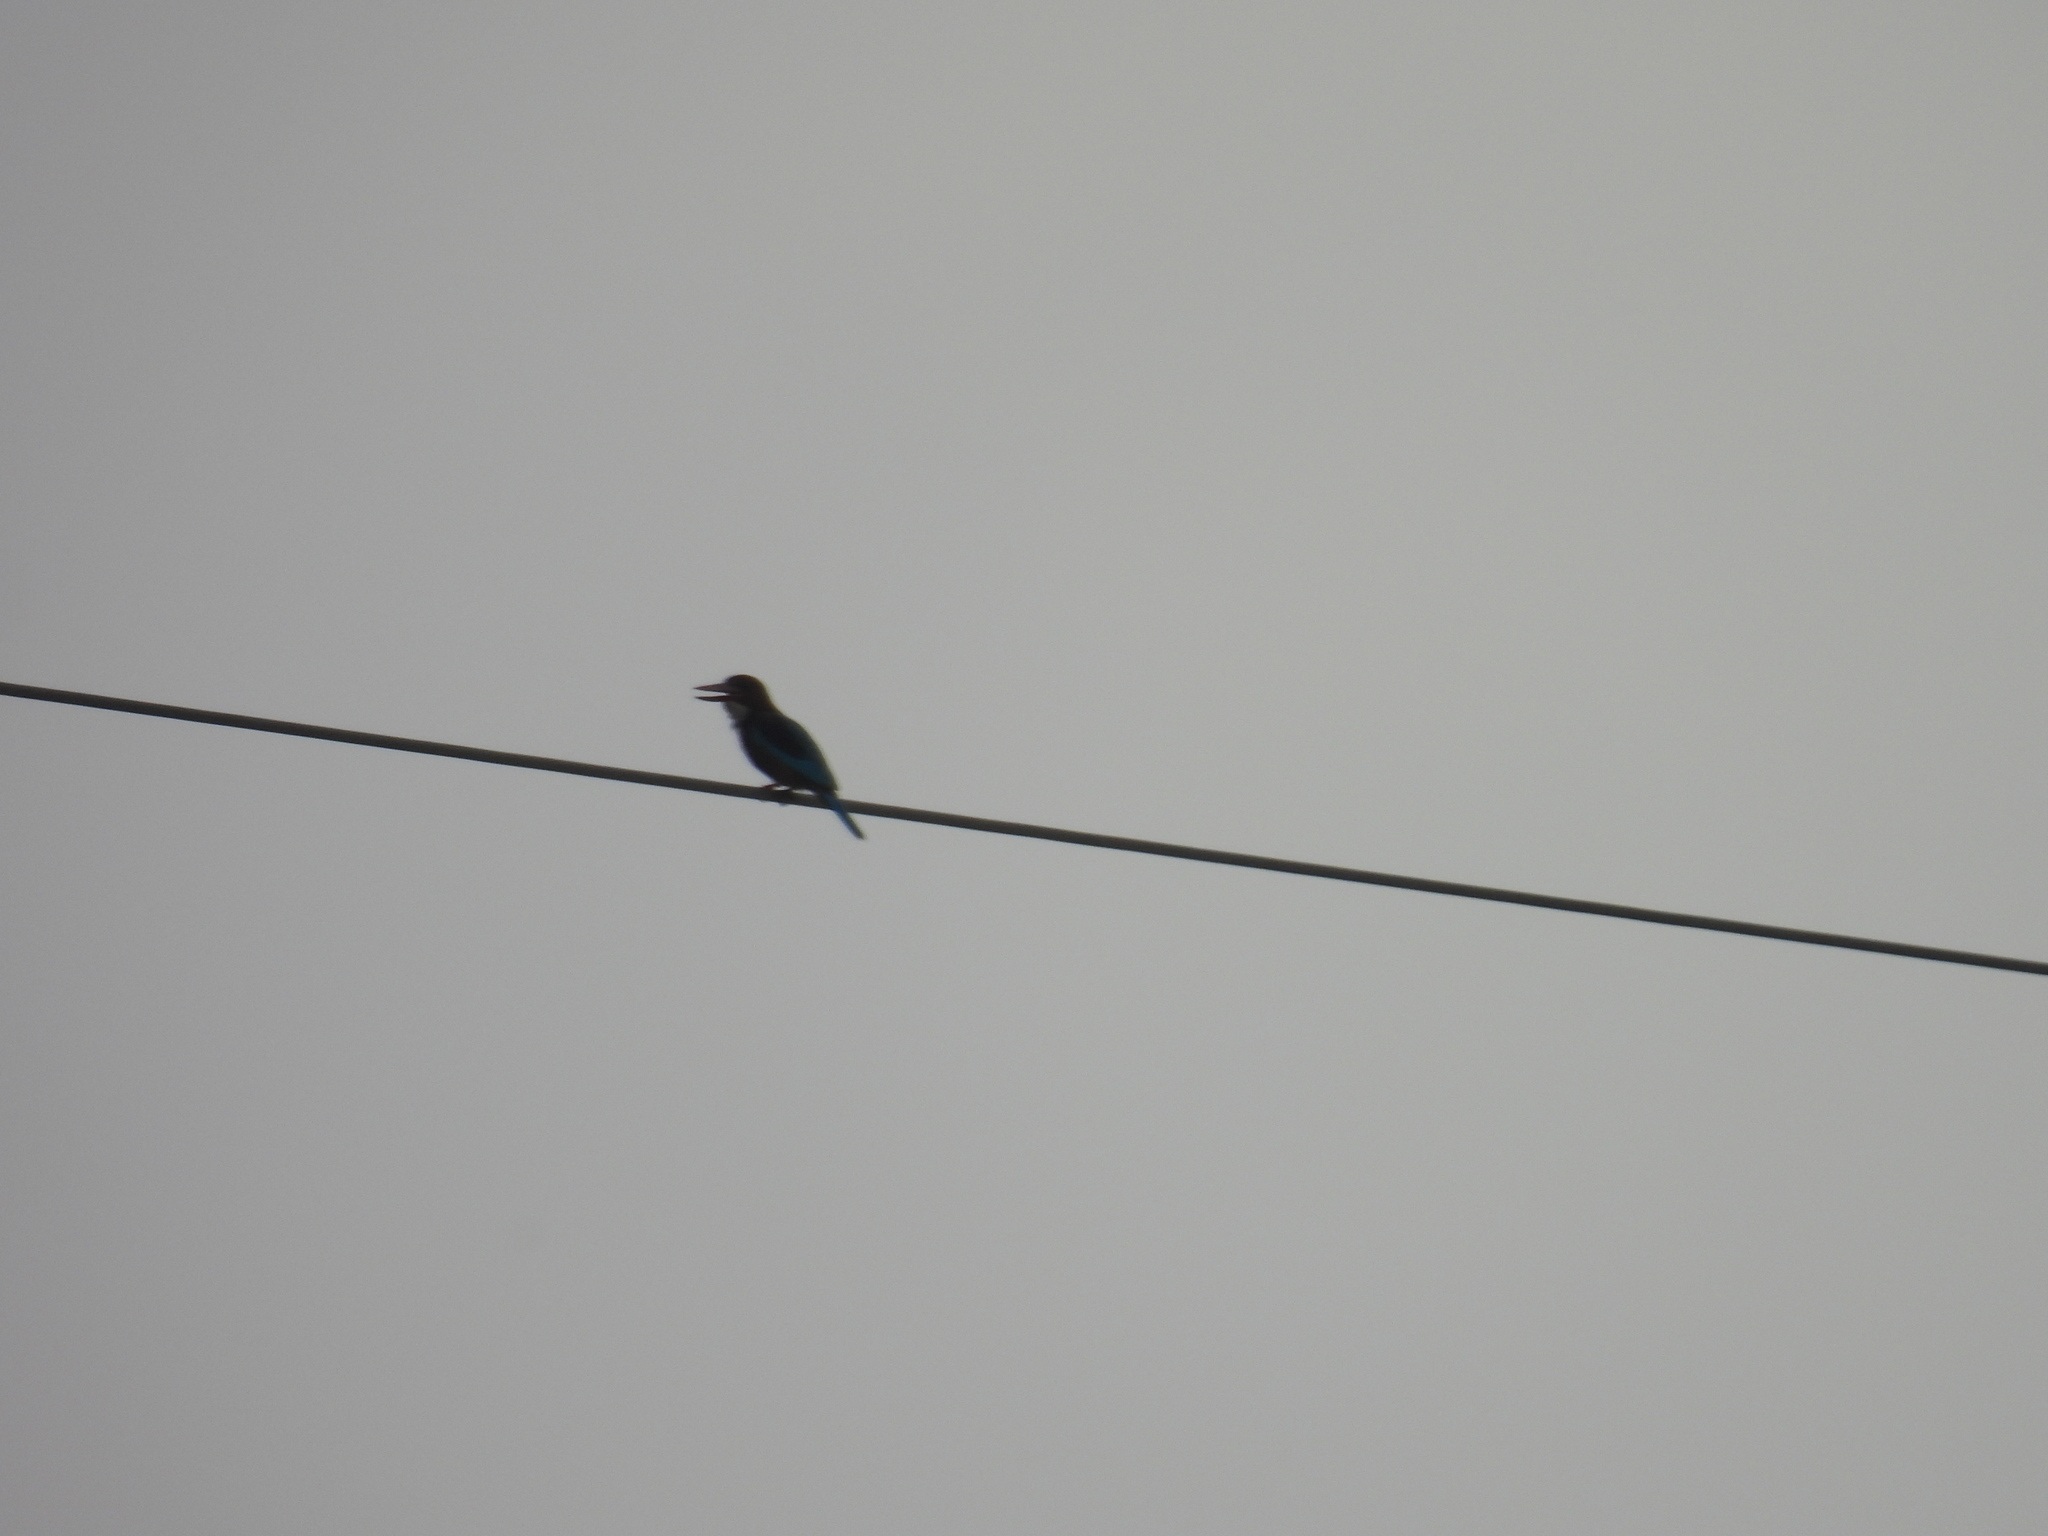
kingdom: Animalia
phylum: Chordata
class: Aves
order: Coraciiformes
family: Alcedinidae
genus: Halcyon
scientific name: Halcyon smyrnensis
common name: White-throated kingfisher
